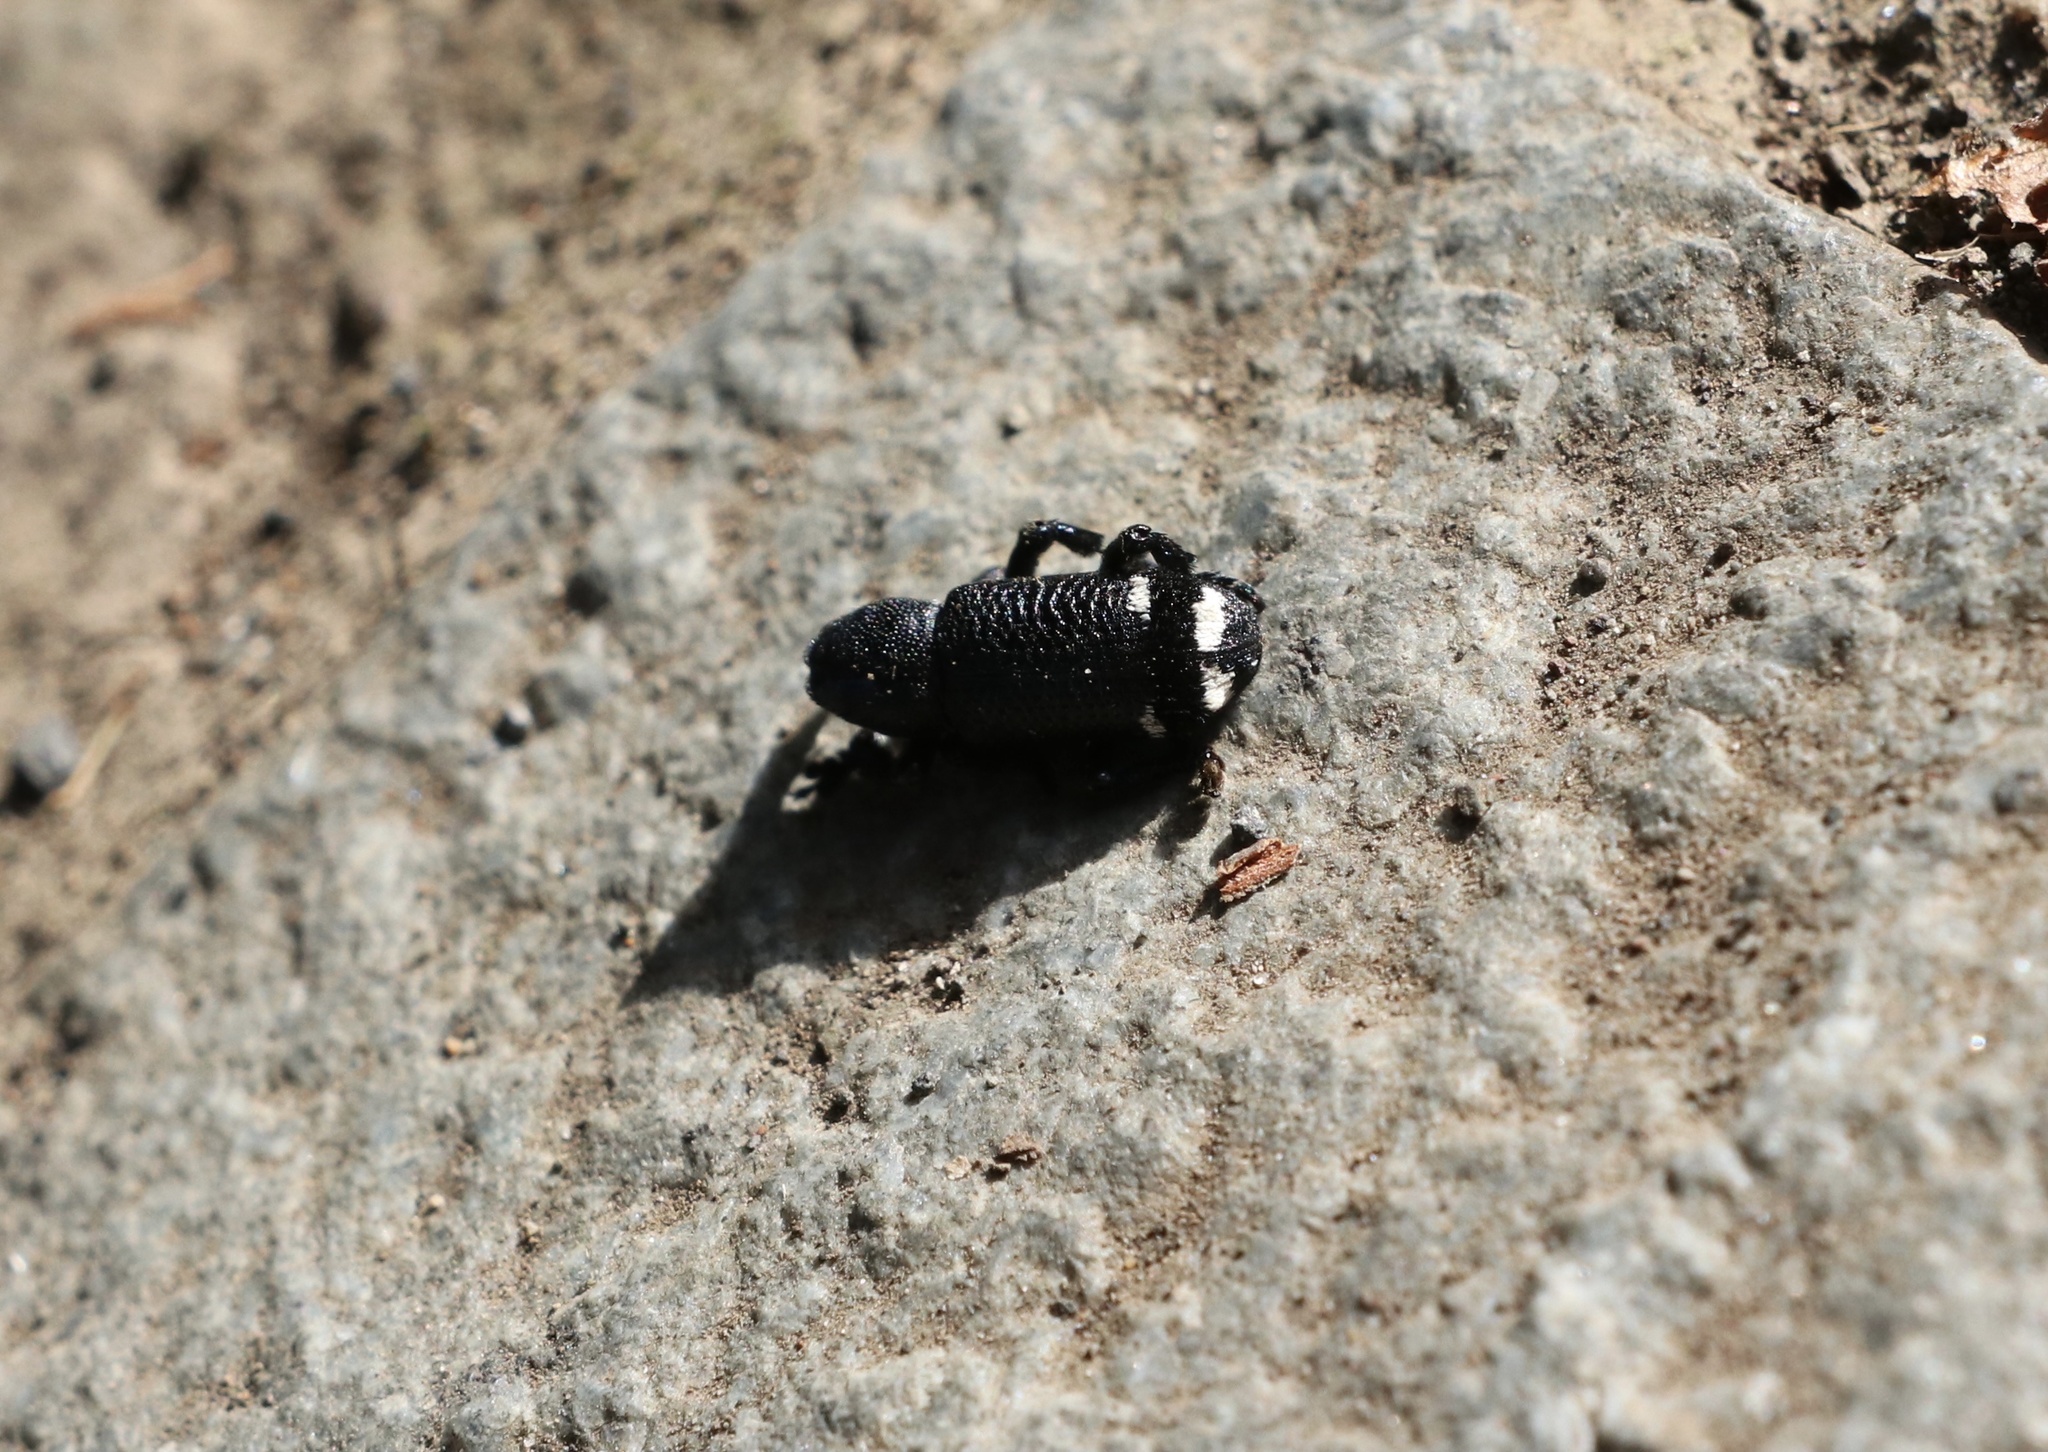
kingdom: Animalia
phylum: Arthropoda
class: Insecta
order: Coleoptera
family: Curculionidae
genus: Nothofagius
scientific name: Nothofagius fimbriatus
